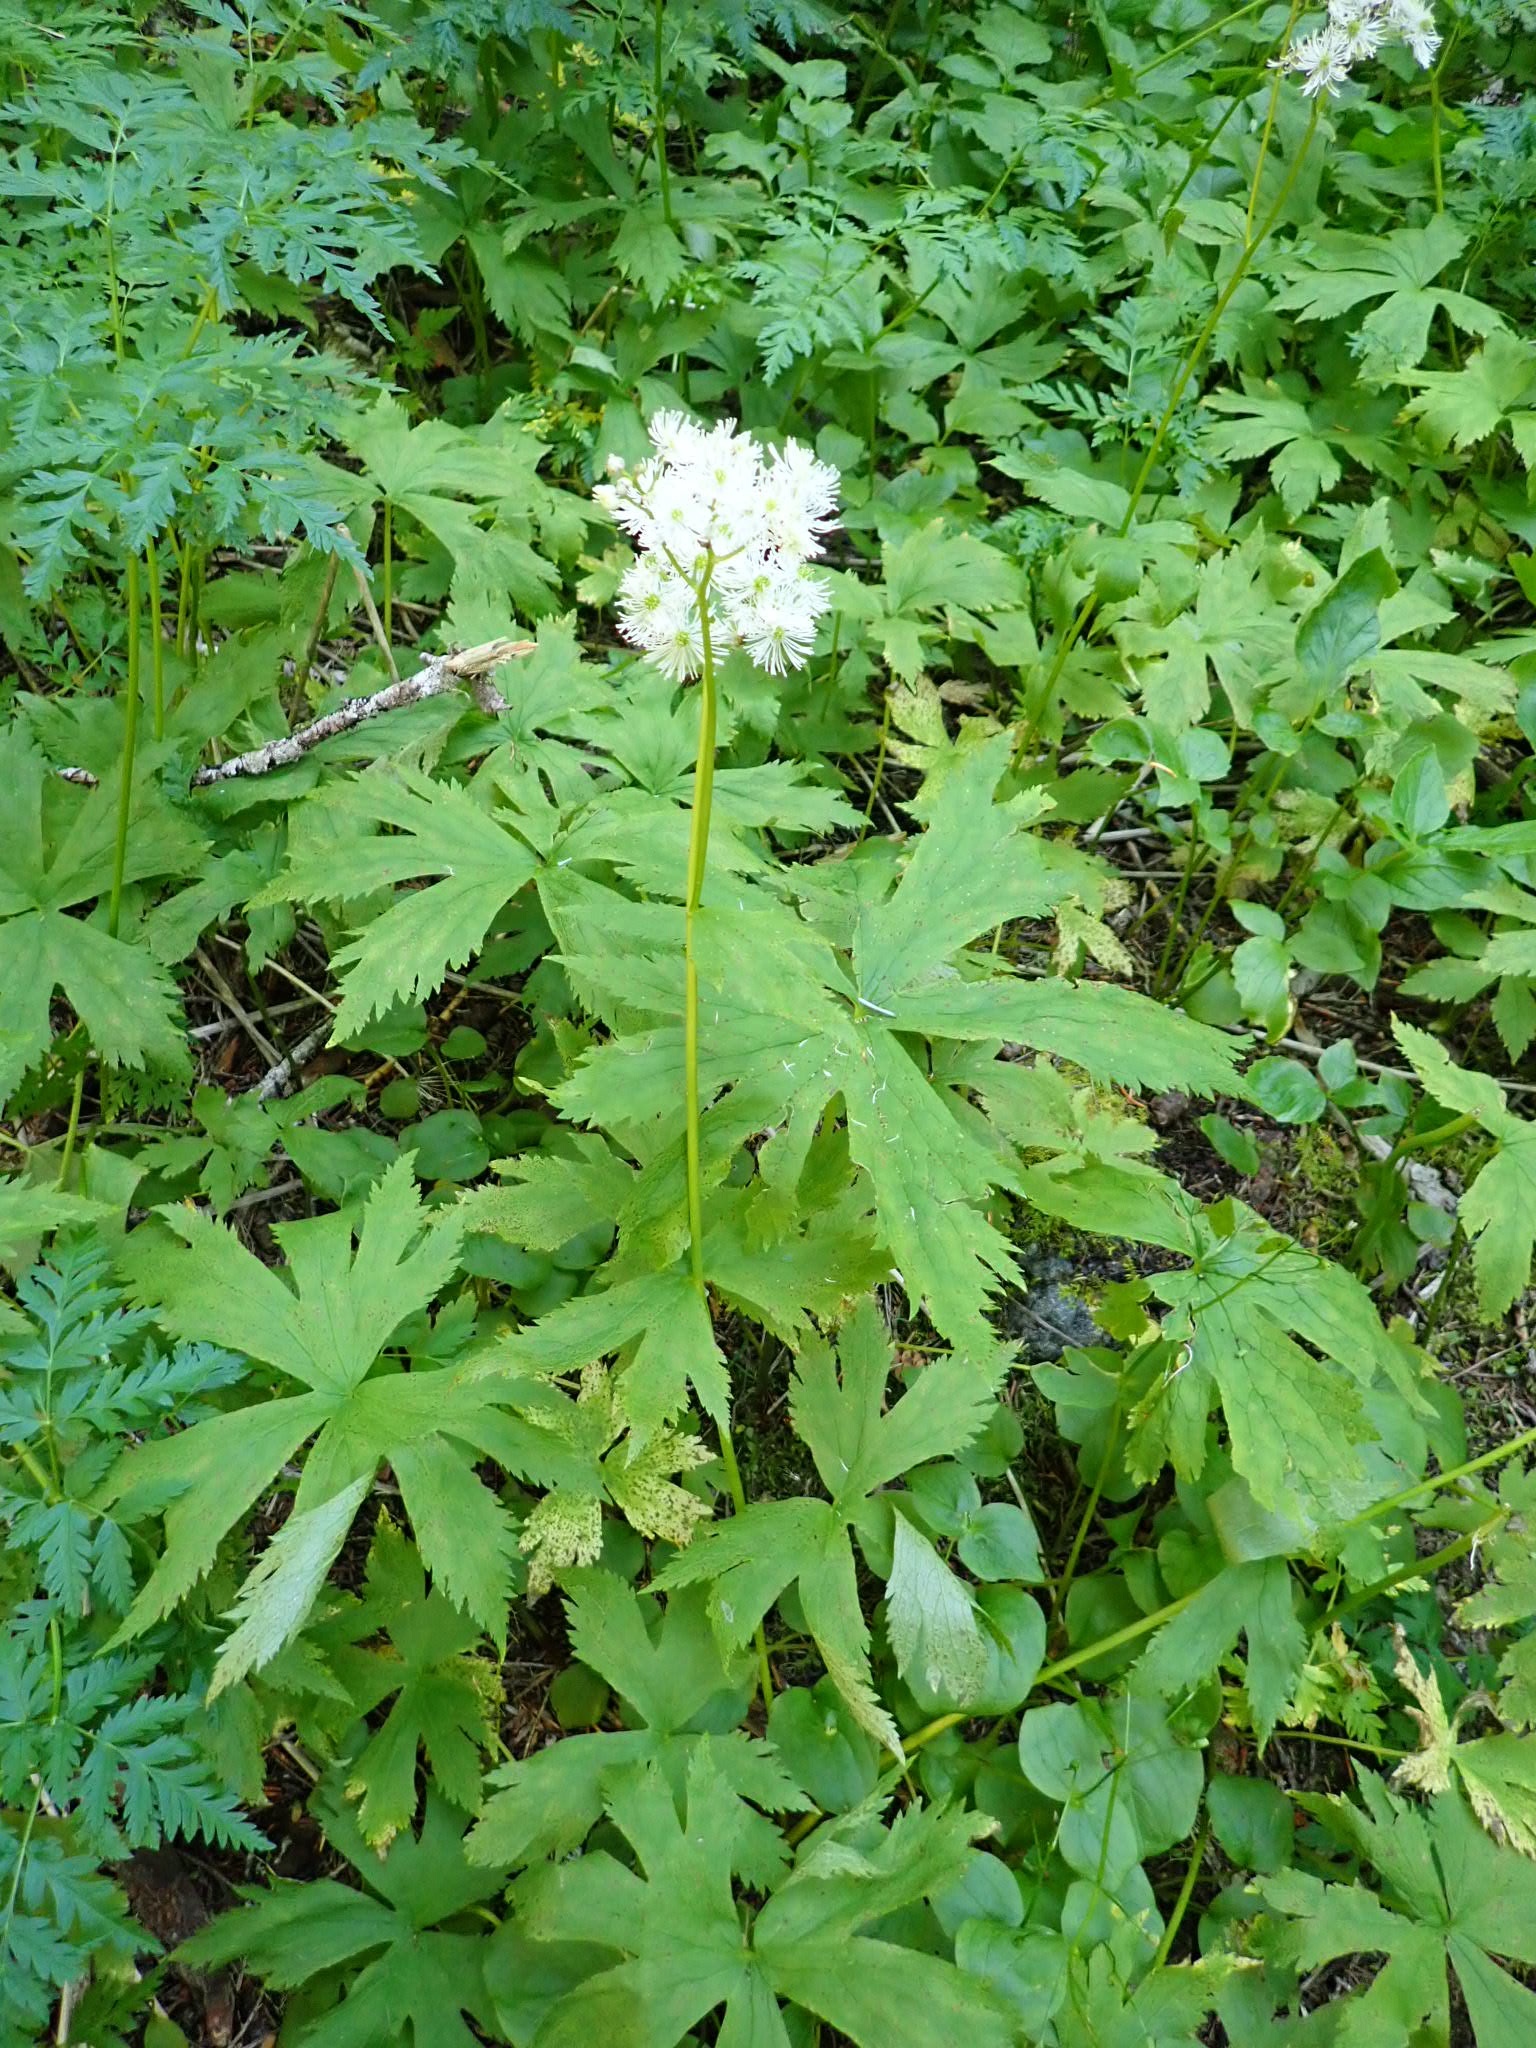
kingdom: Plantae
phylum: Tracheophyta
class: Magnoliopsida
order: Ranunculales
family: Ranunculaceae
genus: Trautvetteria
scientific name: Trautvetteria carolinensis
